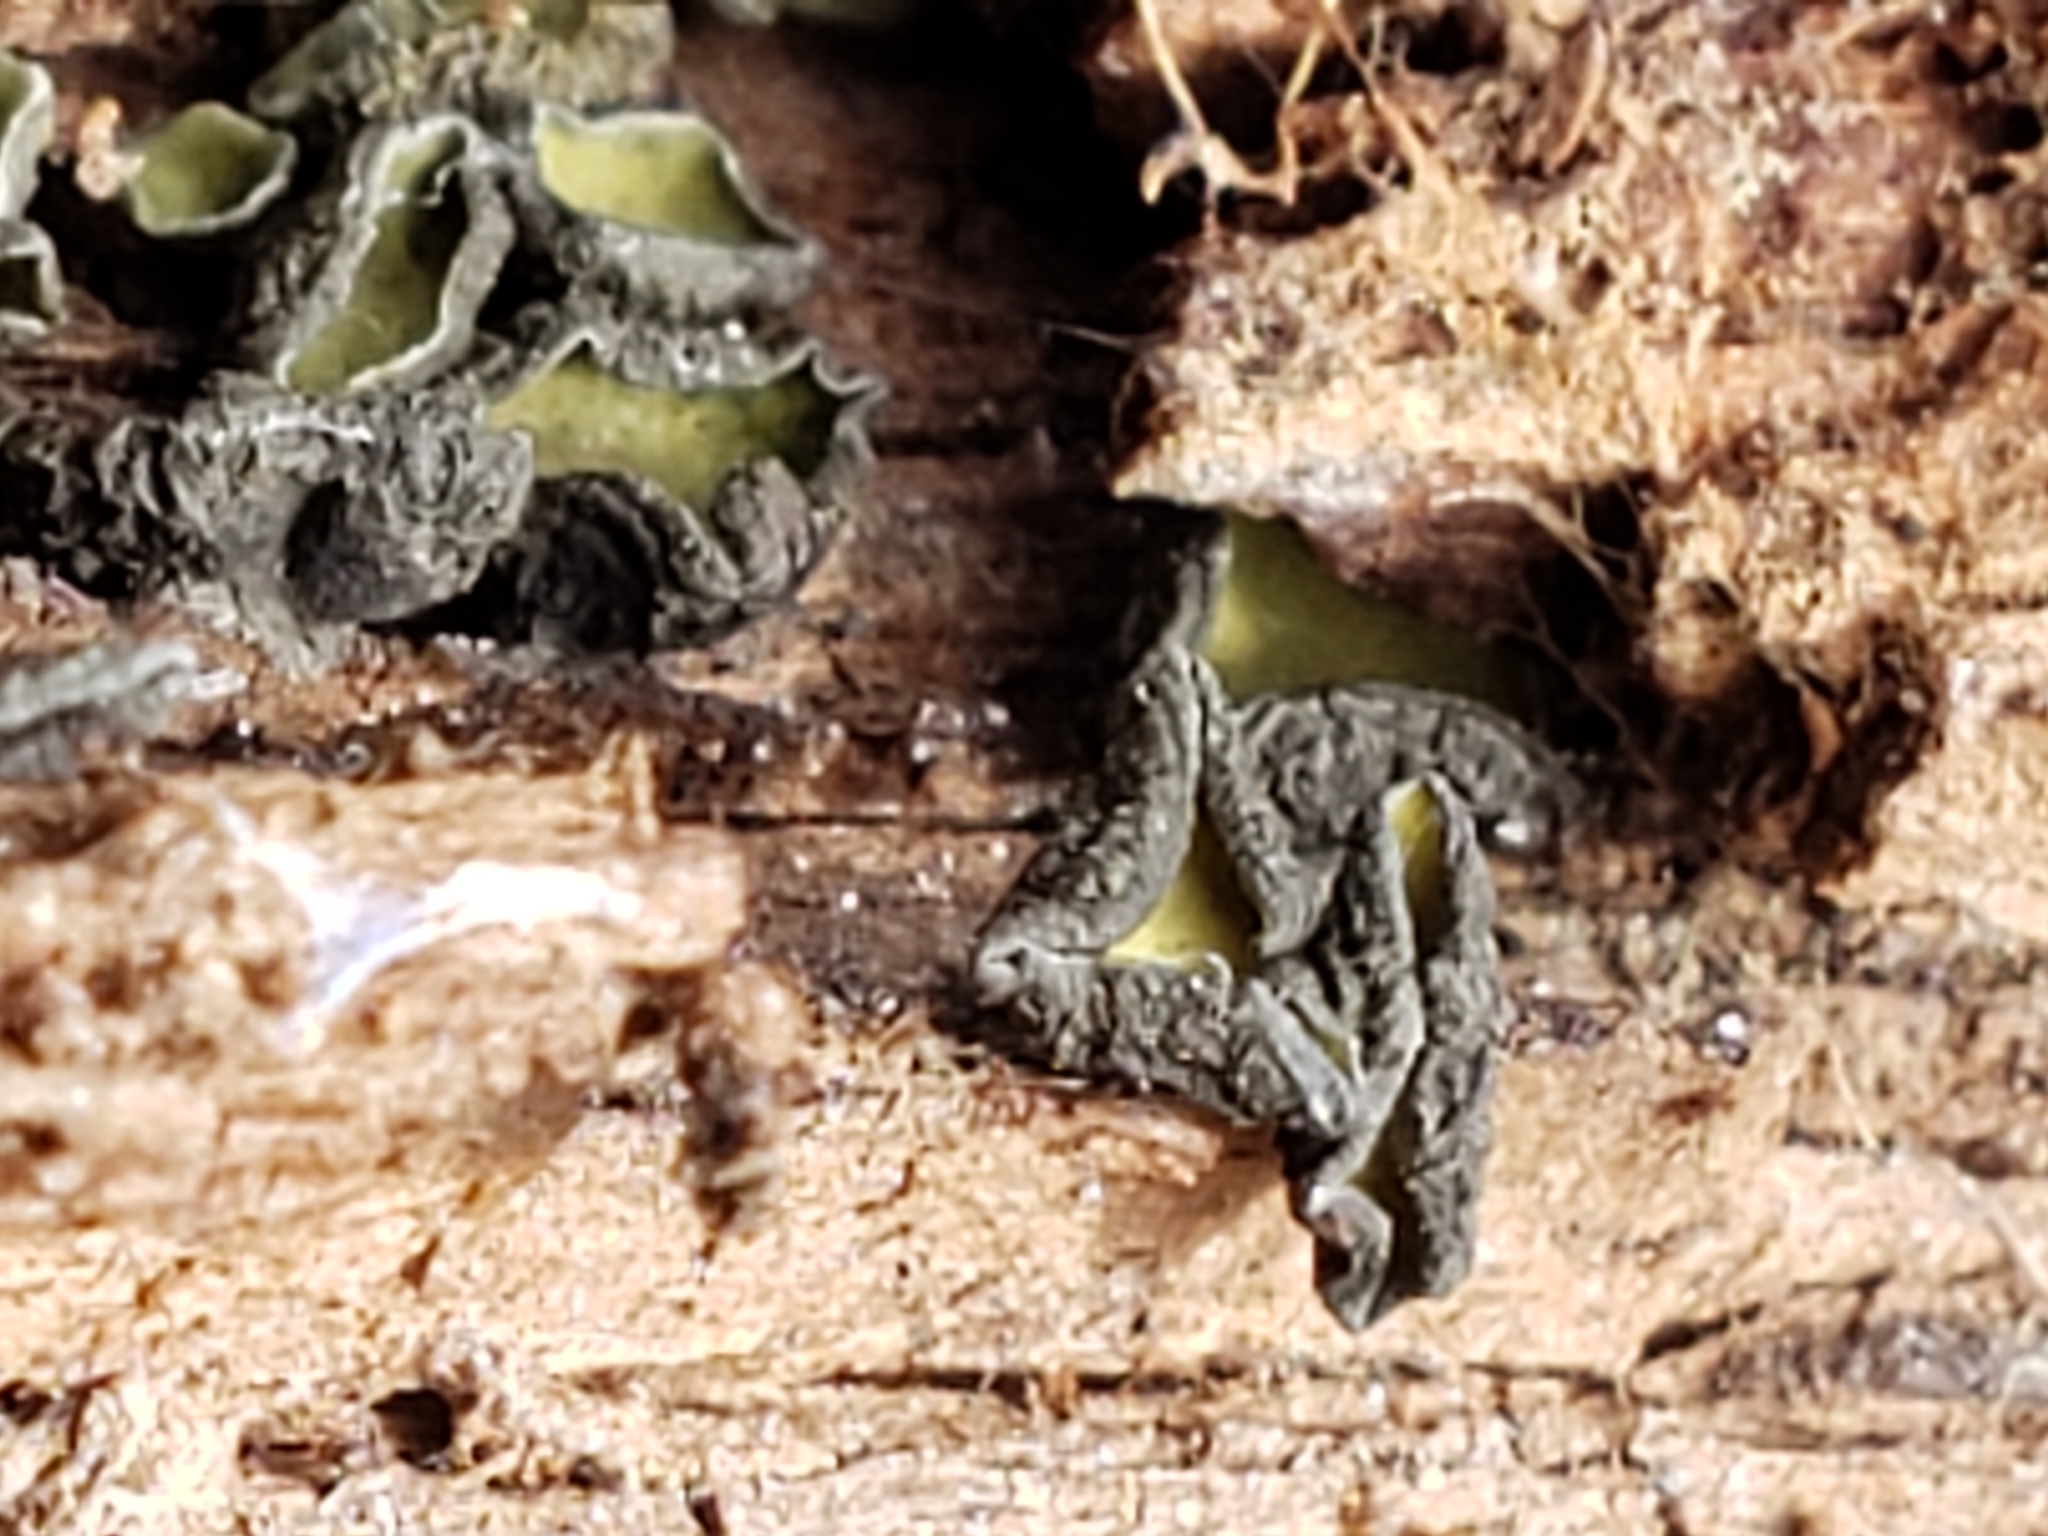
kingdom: Fungi
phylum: Ascomycota
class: Leotiomycetes
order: Helotiales
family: Chlorospleniaceae
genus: Chlorosplenium
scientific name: Chlorosplenium chlora
